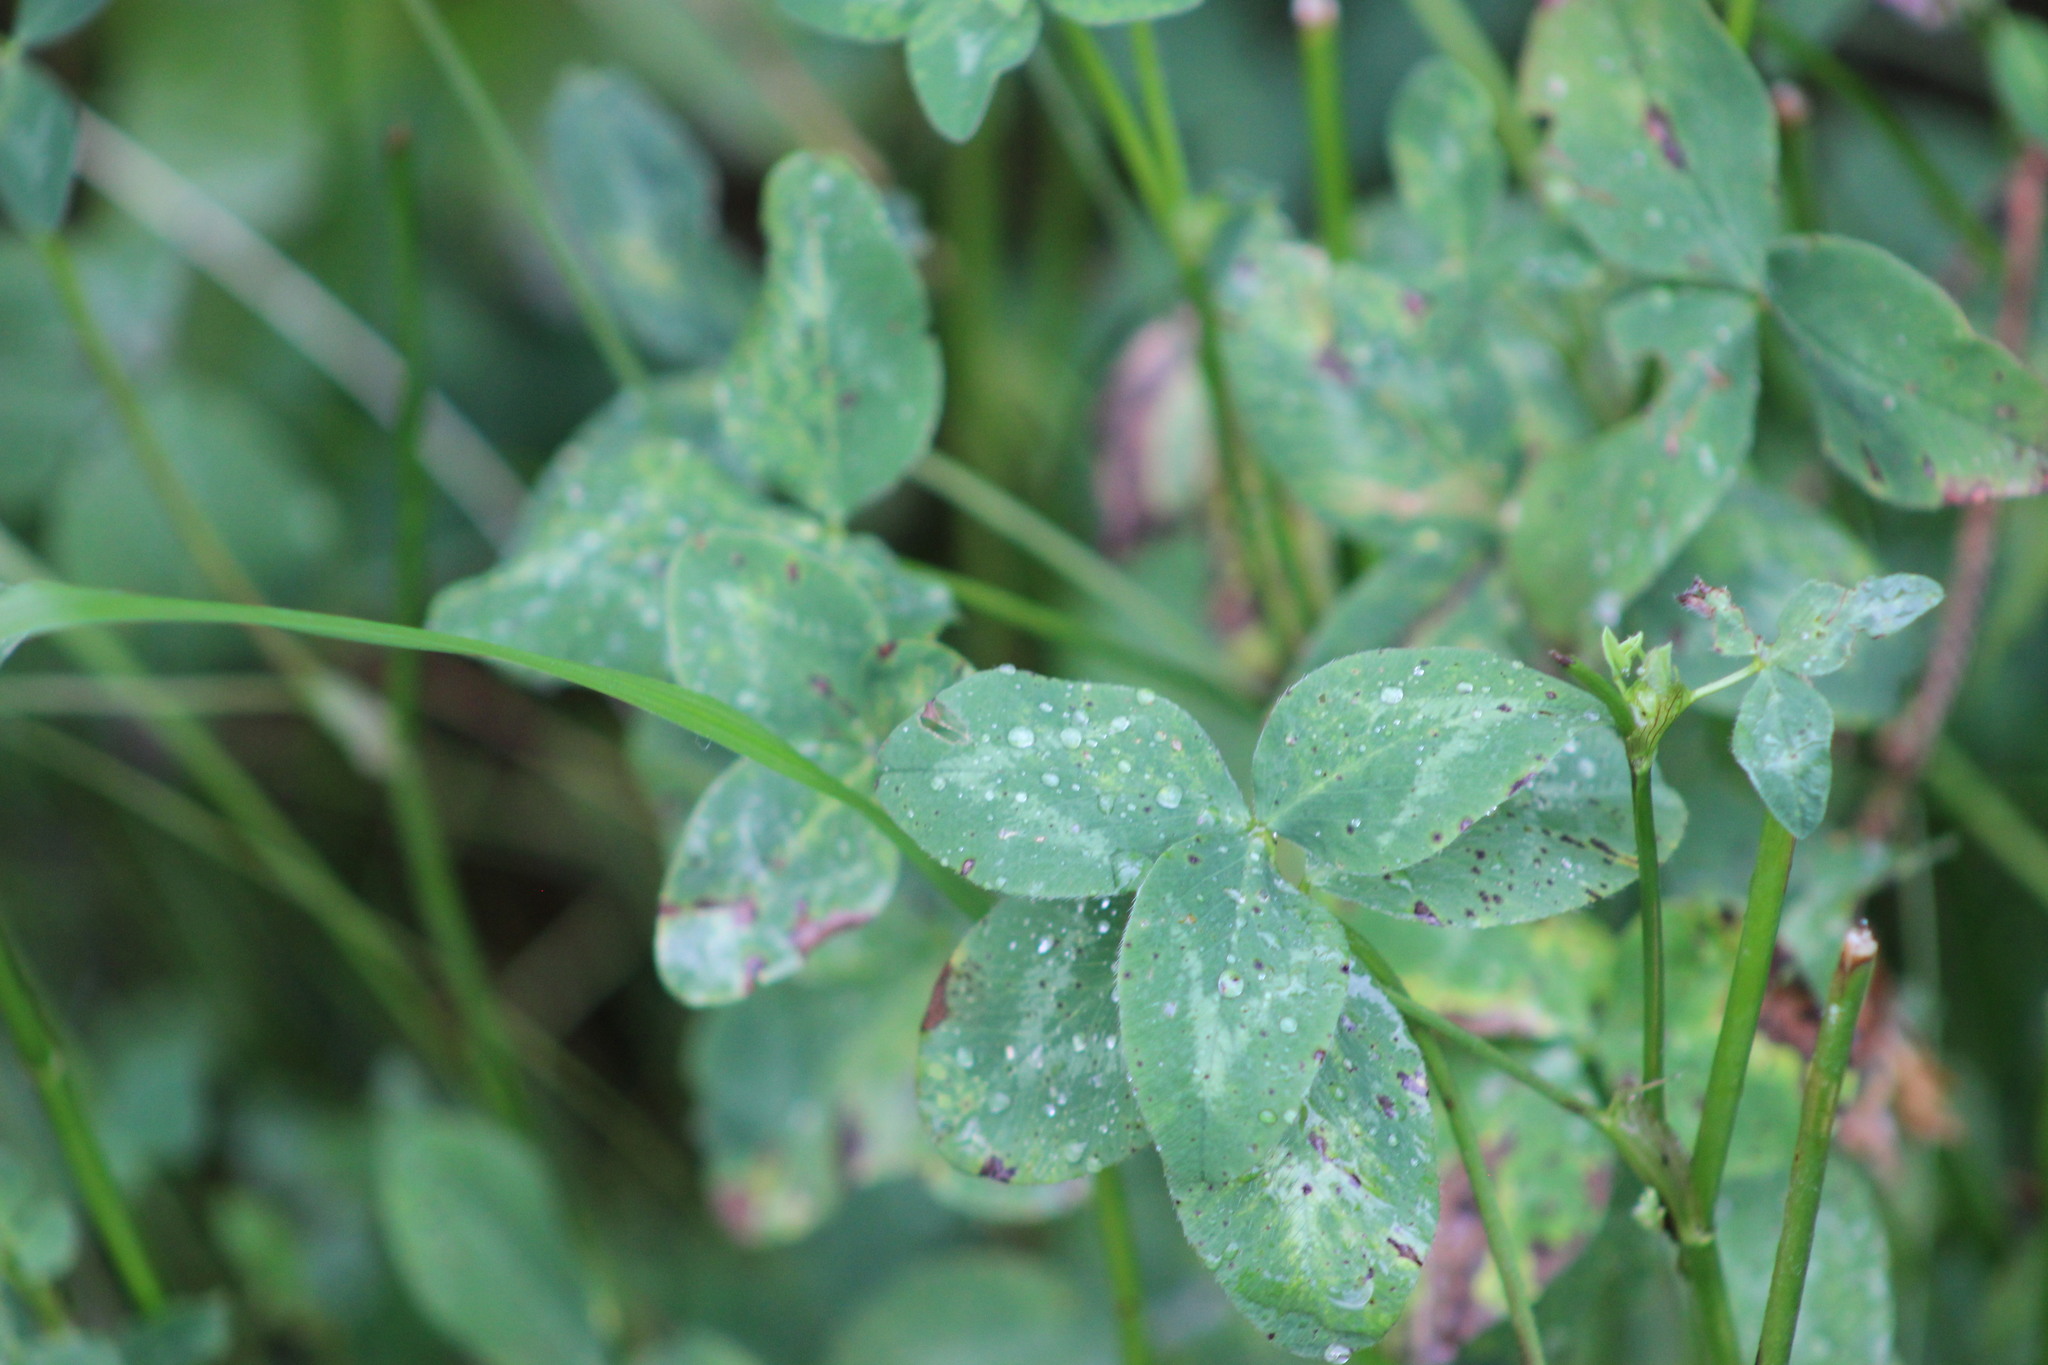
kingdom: Plantae
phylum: Tracheophyta
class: Magnoliopsida
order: Fabales
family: Fabaceae
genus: Trifolium
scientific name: Trifolium pratense
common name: Red clover
